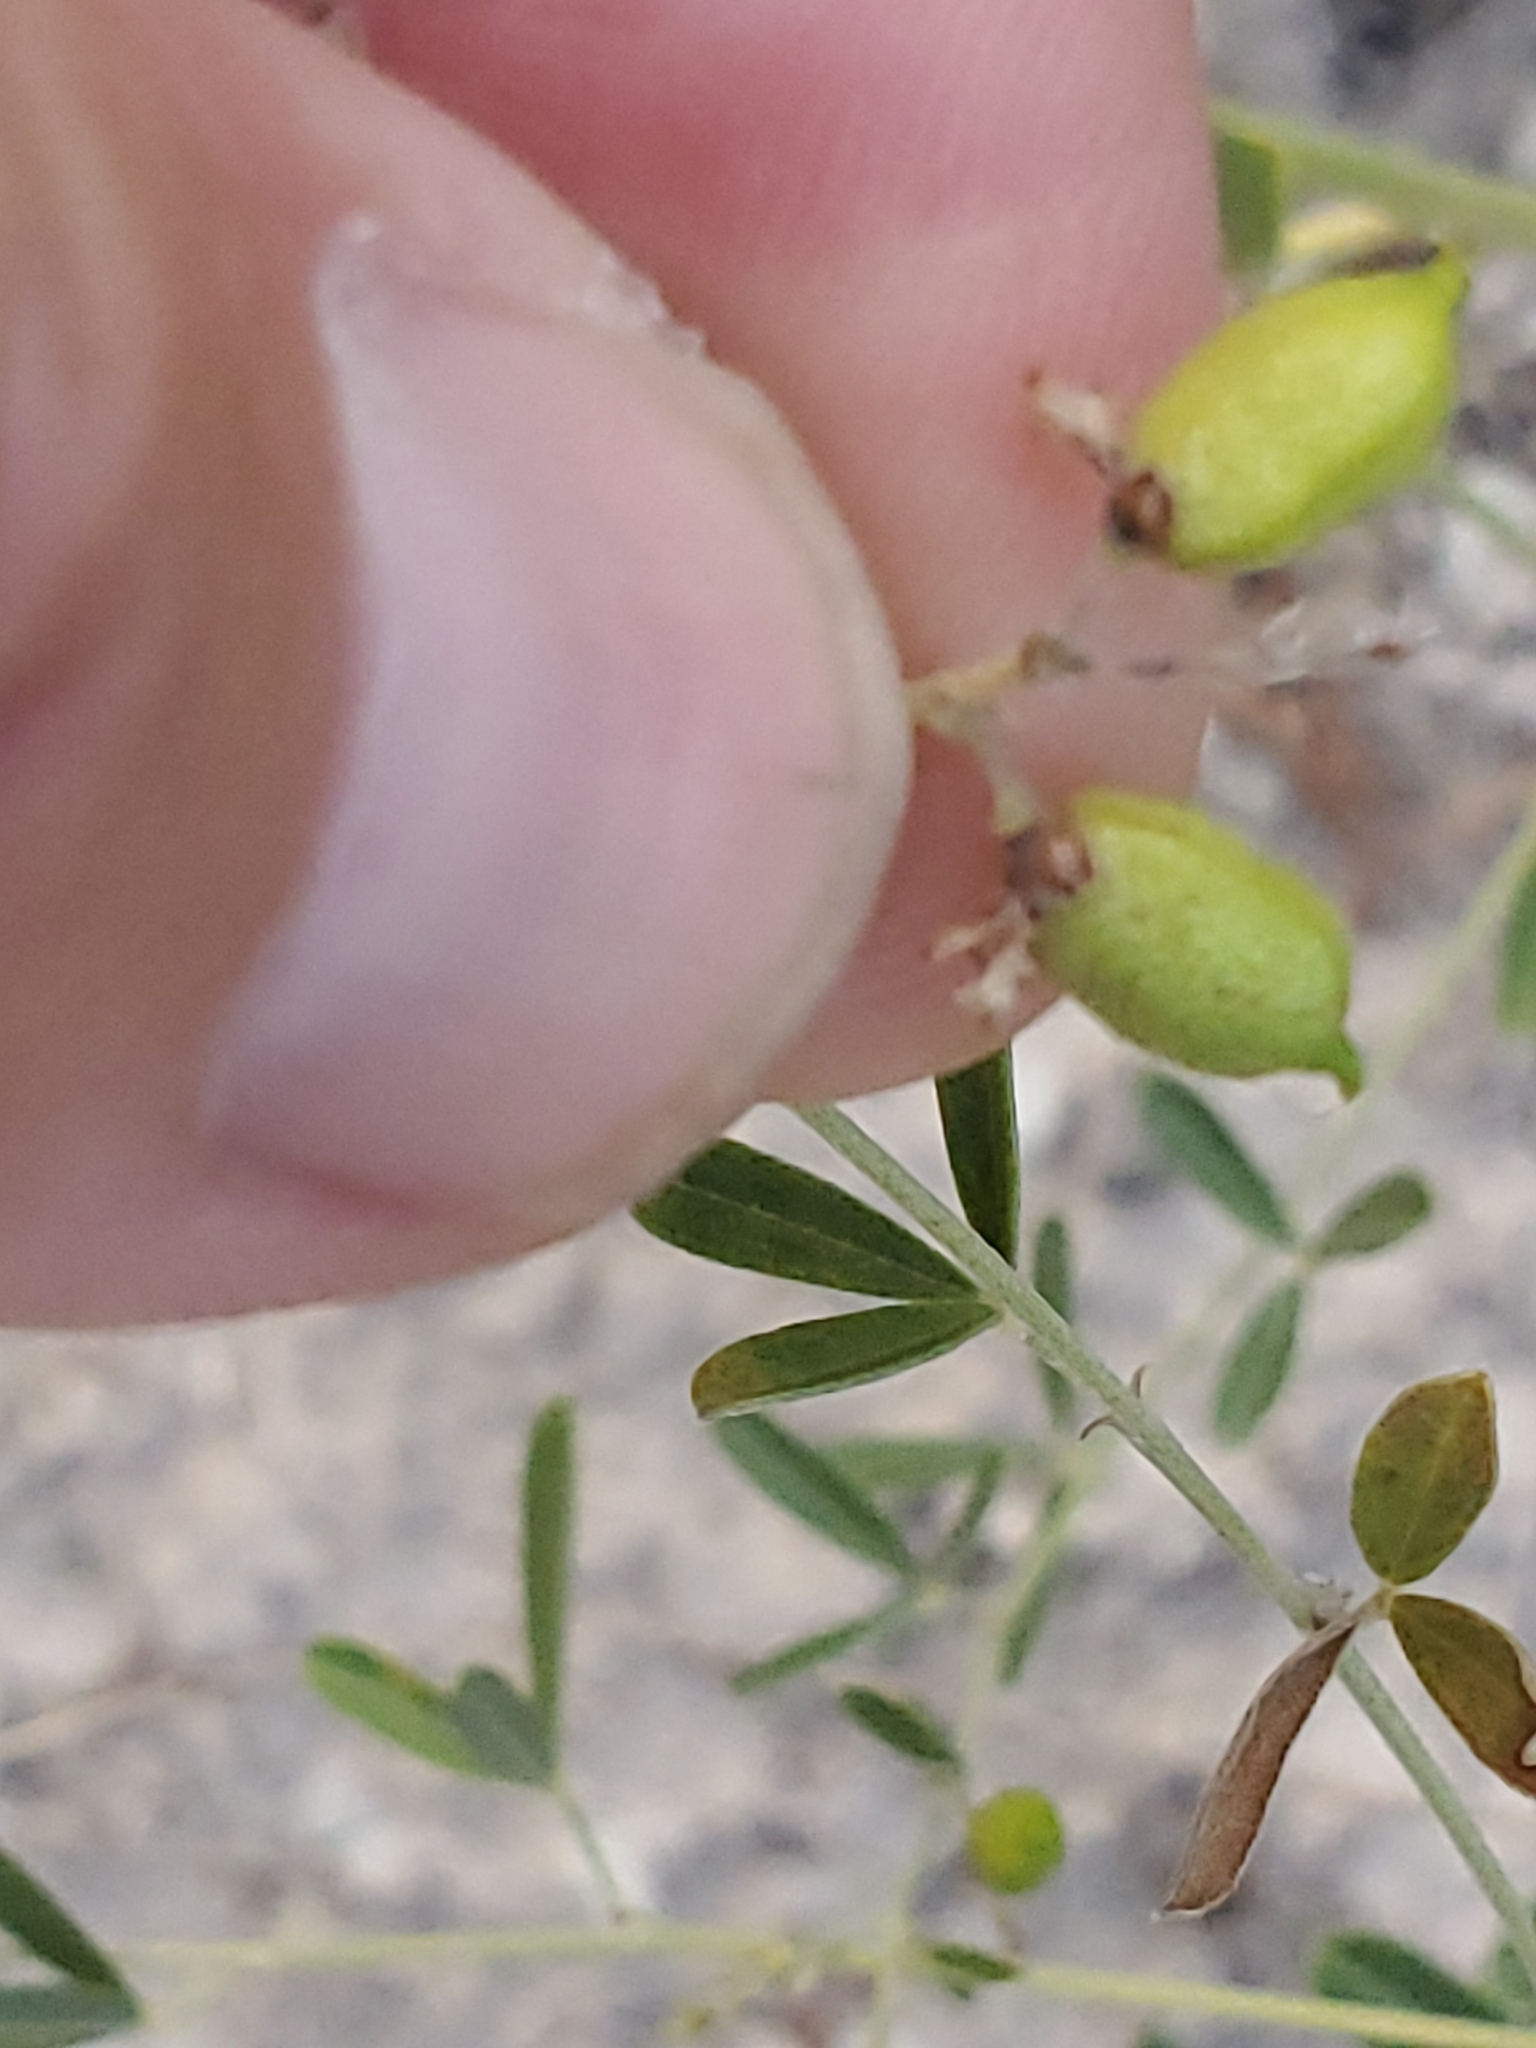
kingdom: Plantae
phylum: Tracheophyta
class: Magnoliopsida
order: Fabales
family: Fabaceae
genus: Pediomelum
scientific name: Pediomelum tenuiflorum
